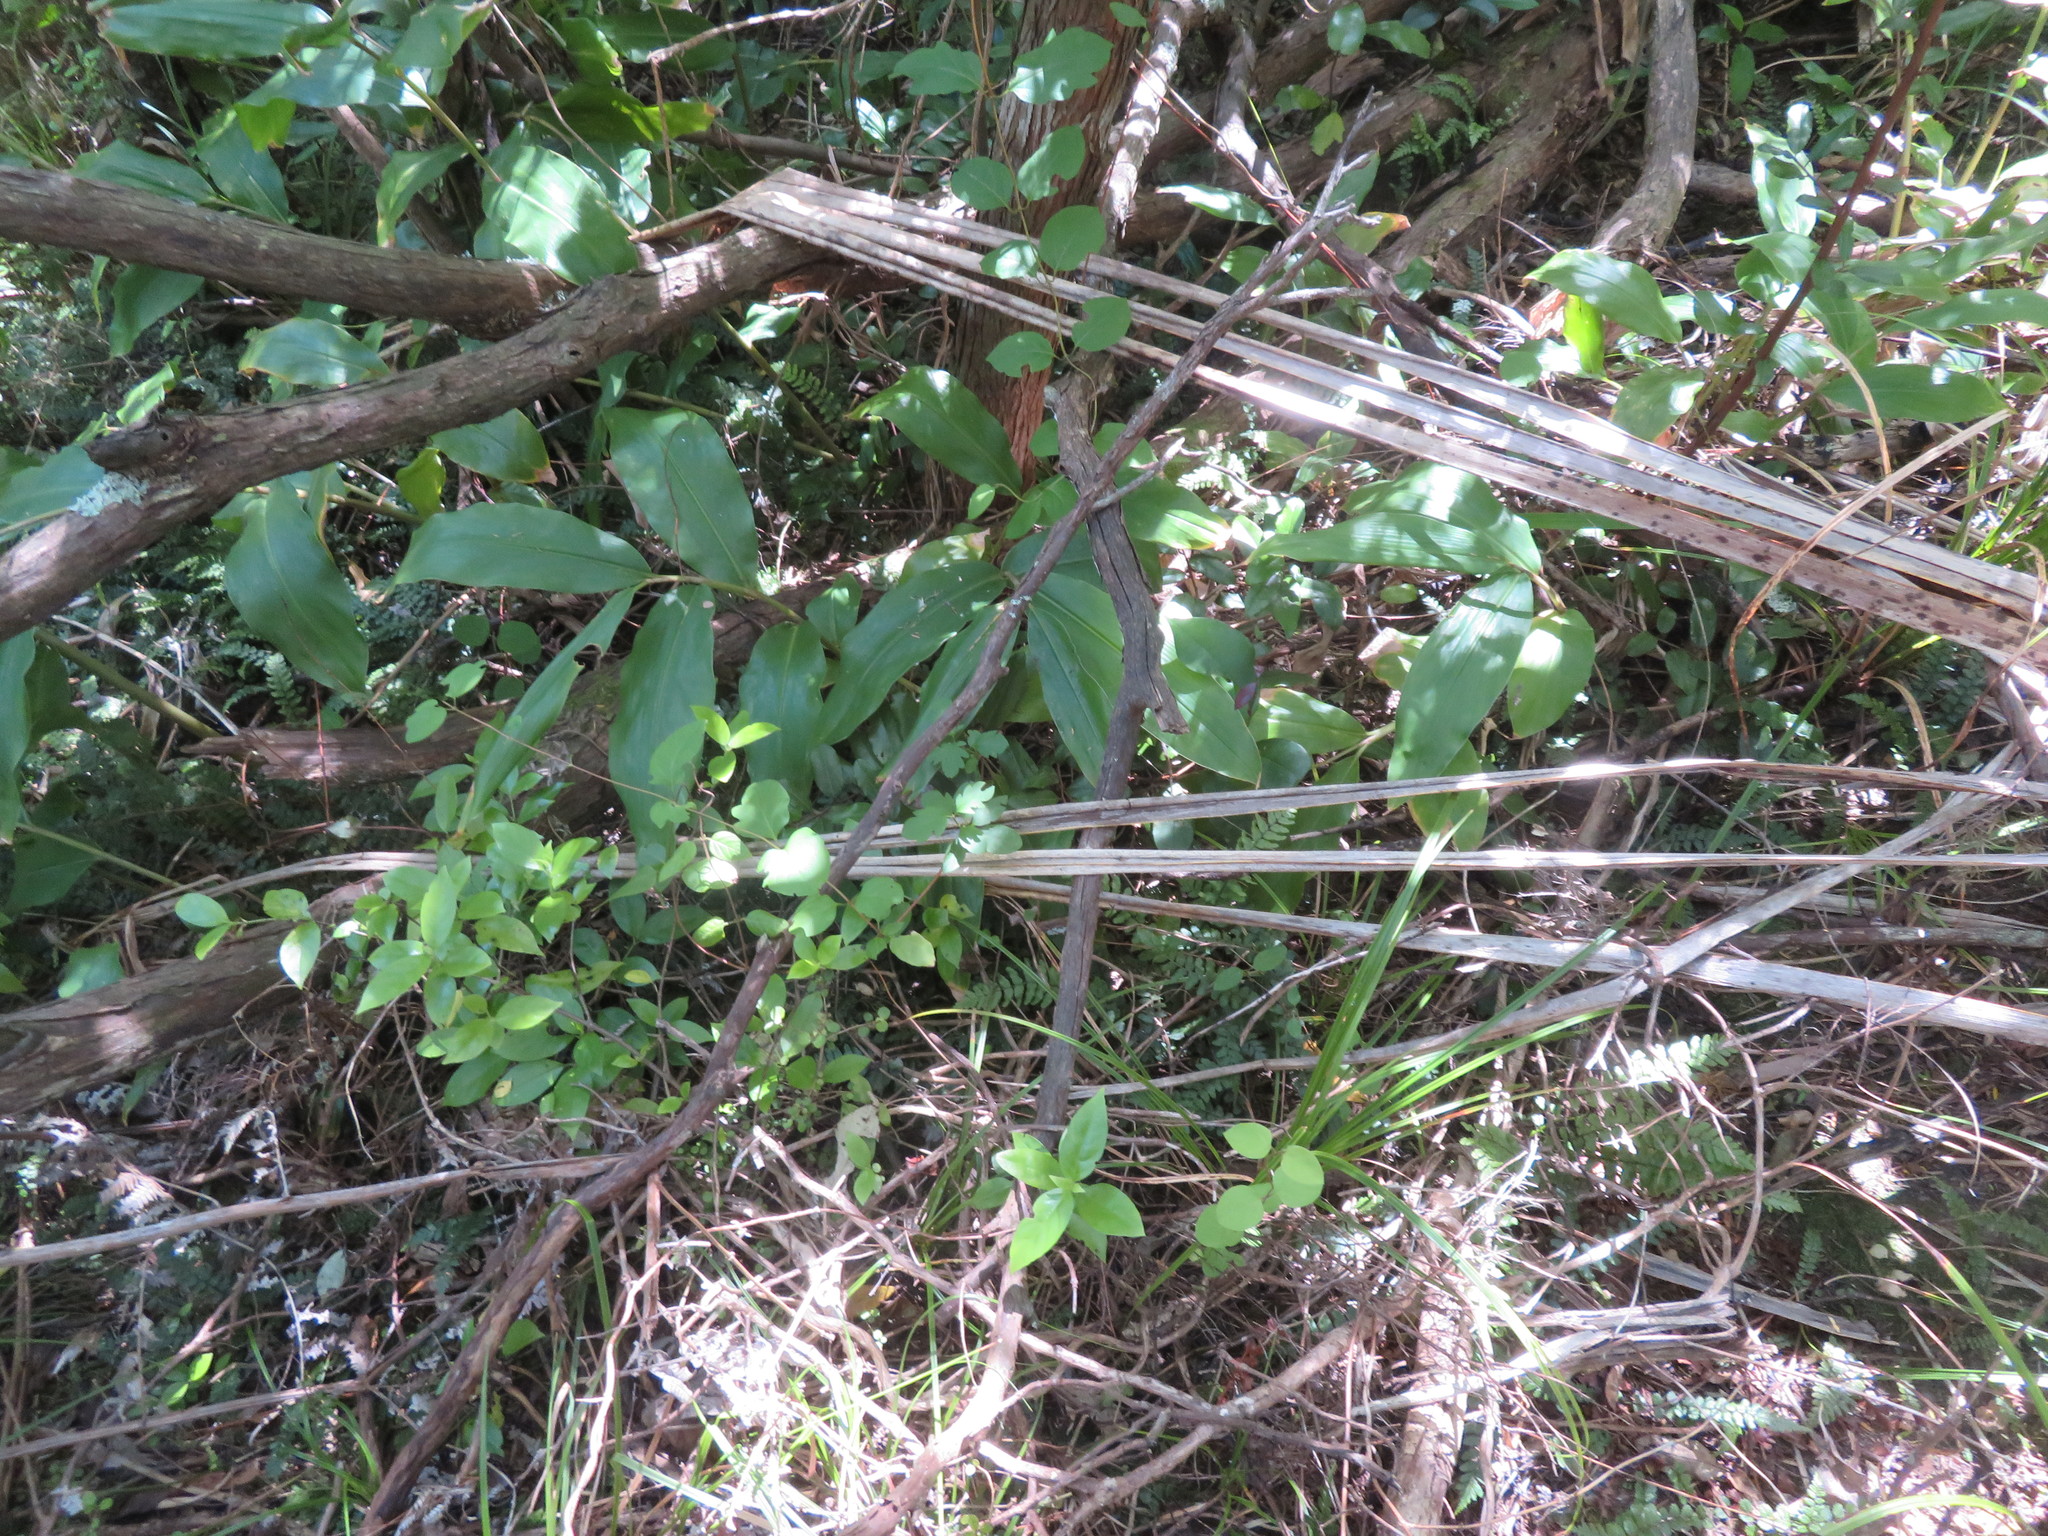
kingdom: Plantae
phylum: Tracheophyta
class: Magnoliopsida
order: Dipsacales
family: Caprifoliaceae
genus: Lonicera
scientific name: Lonicera japonica
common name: Japanese honeysuckle
